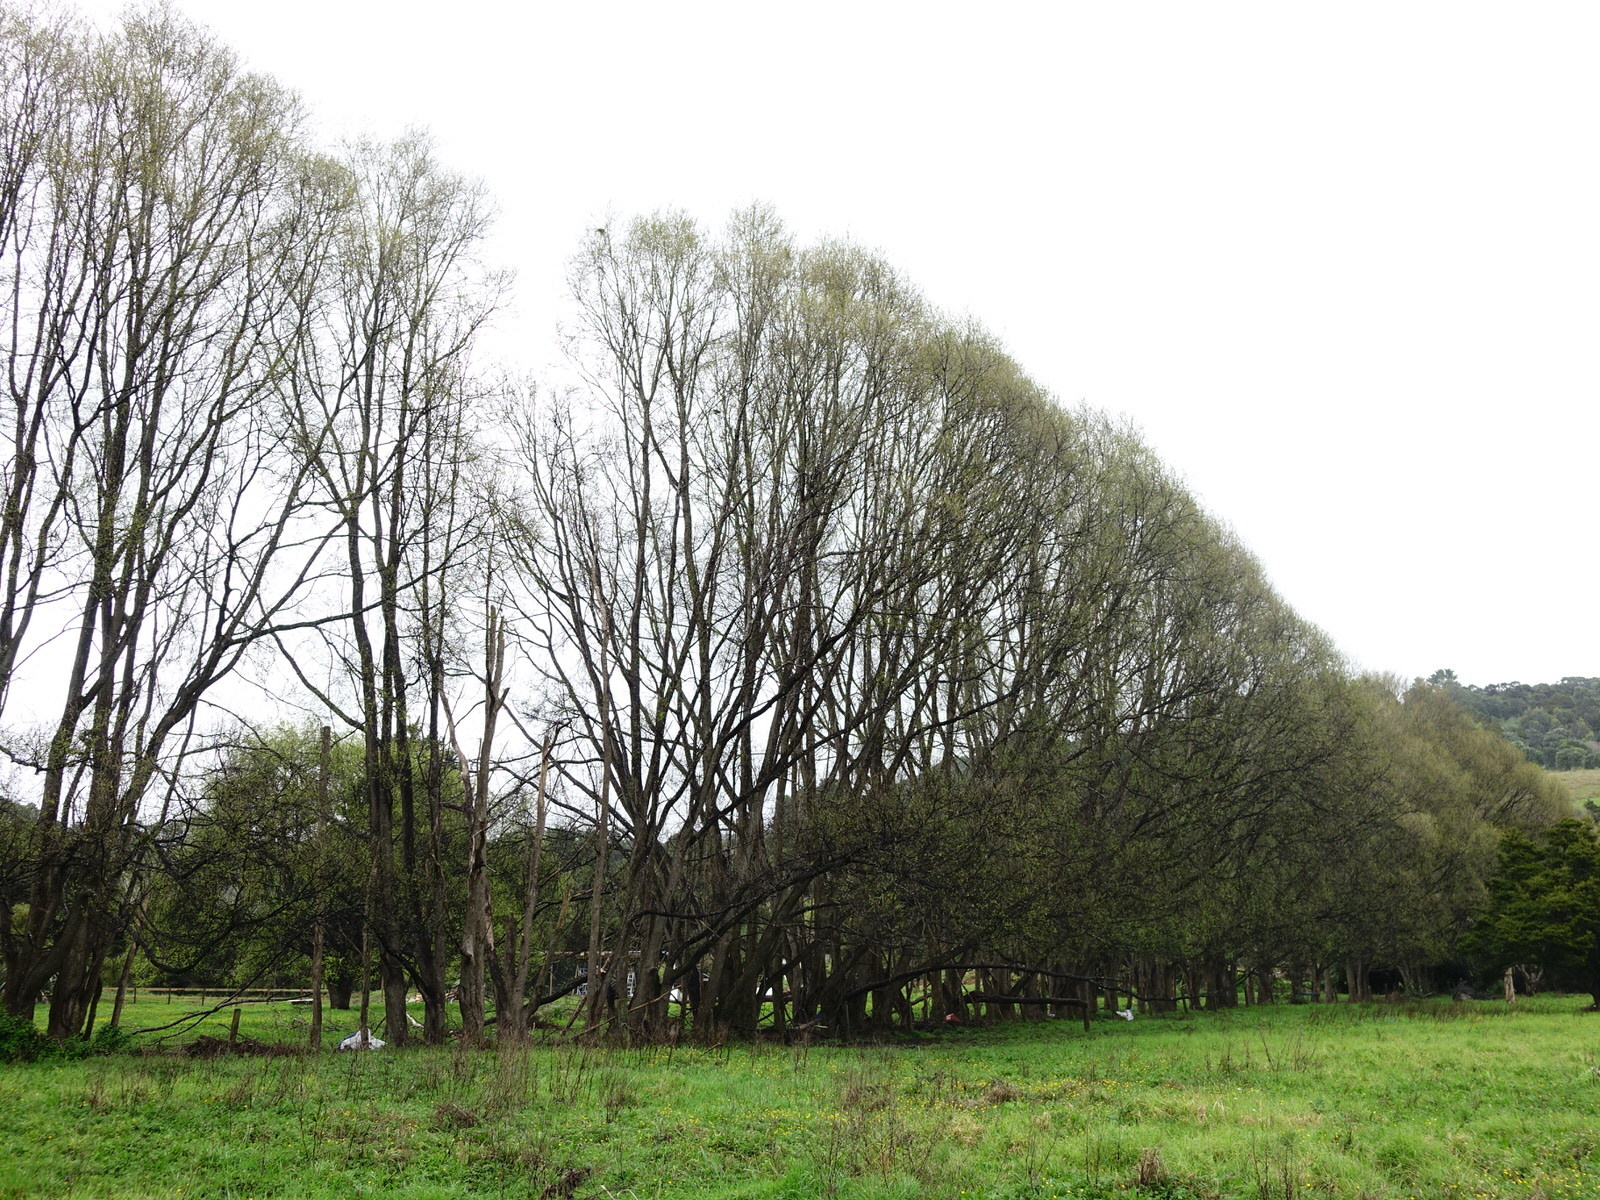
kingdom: Animalia
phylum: Chordata
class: Aves
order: Columbiformes
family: Columbidae
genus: Hemiphaga
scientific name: Hemiphaga novaeseelandiae
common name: New zealand pigeon
